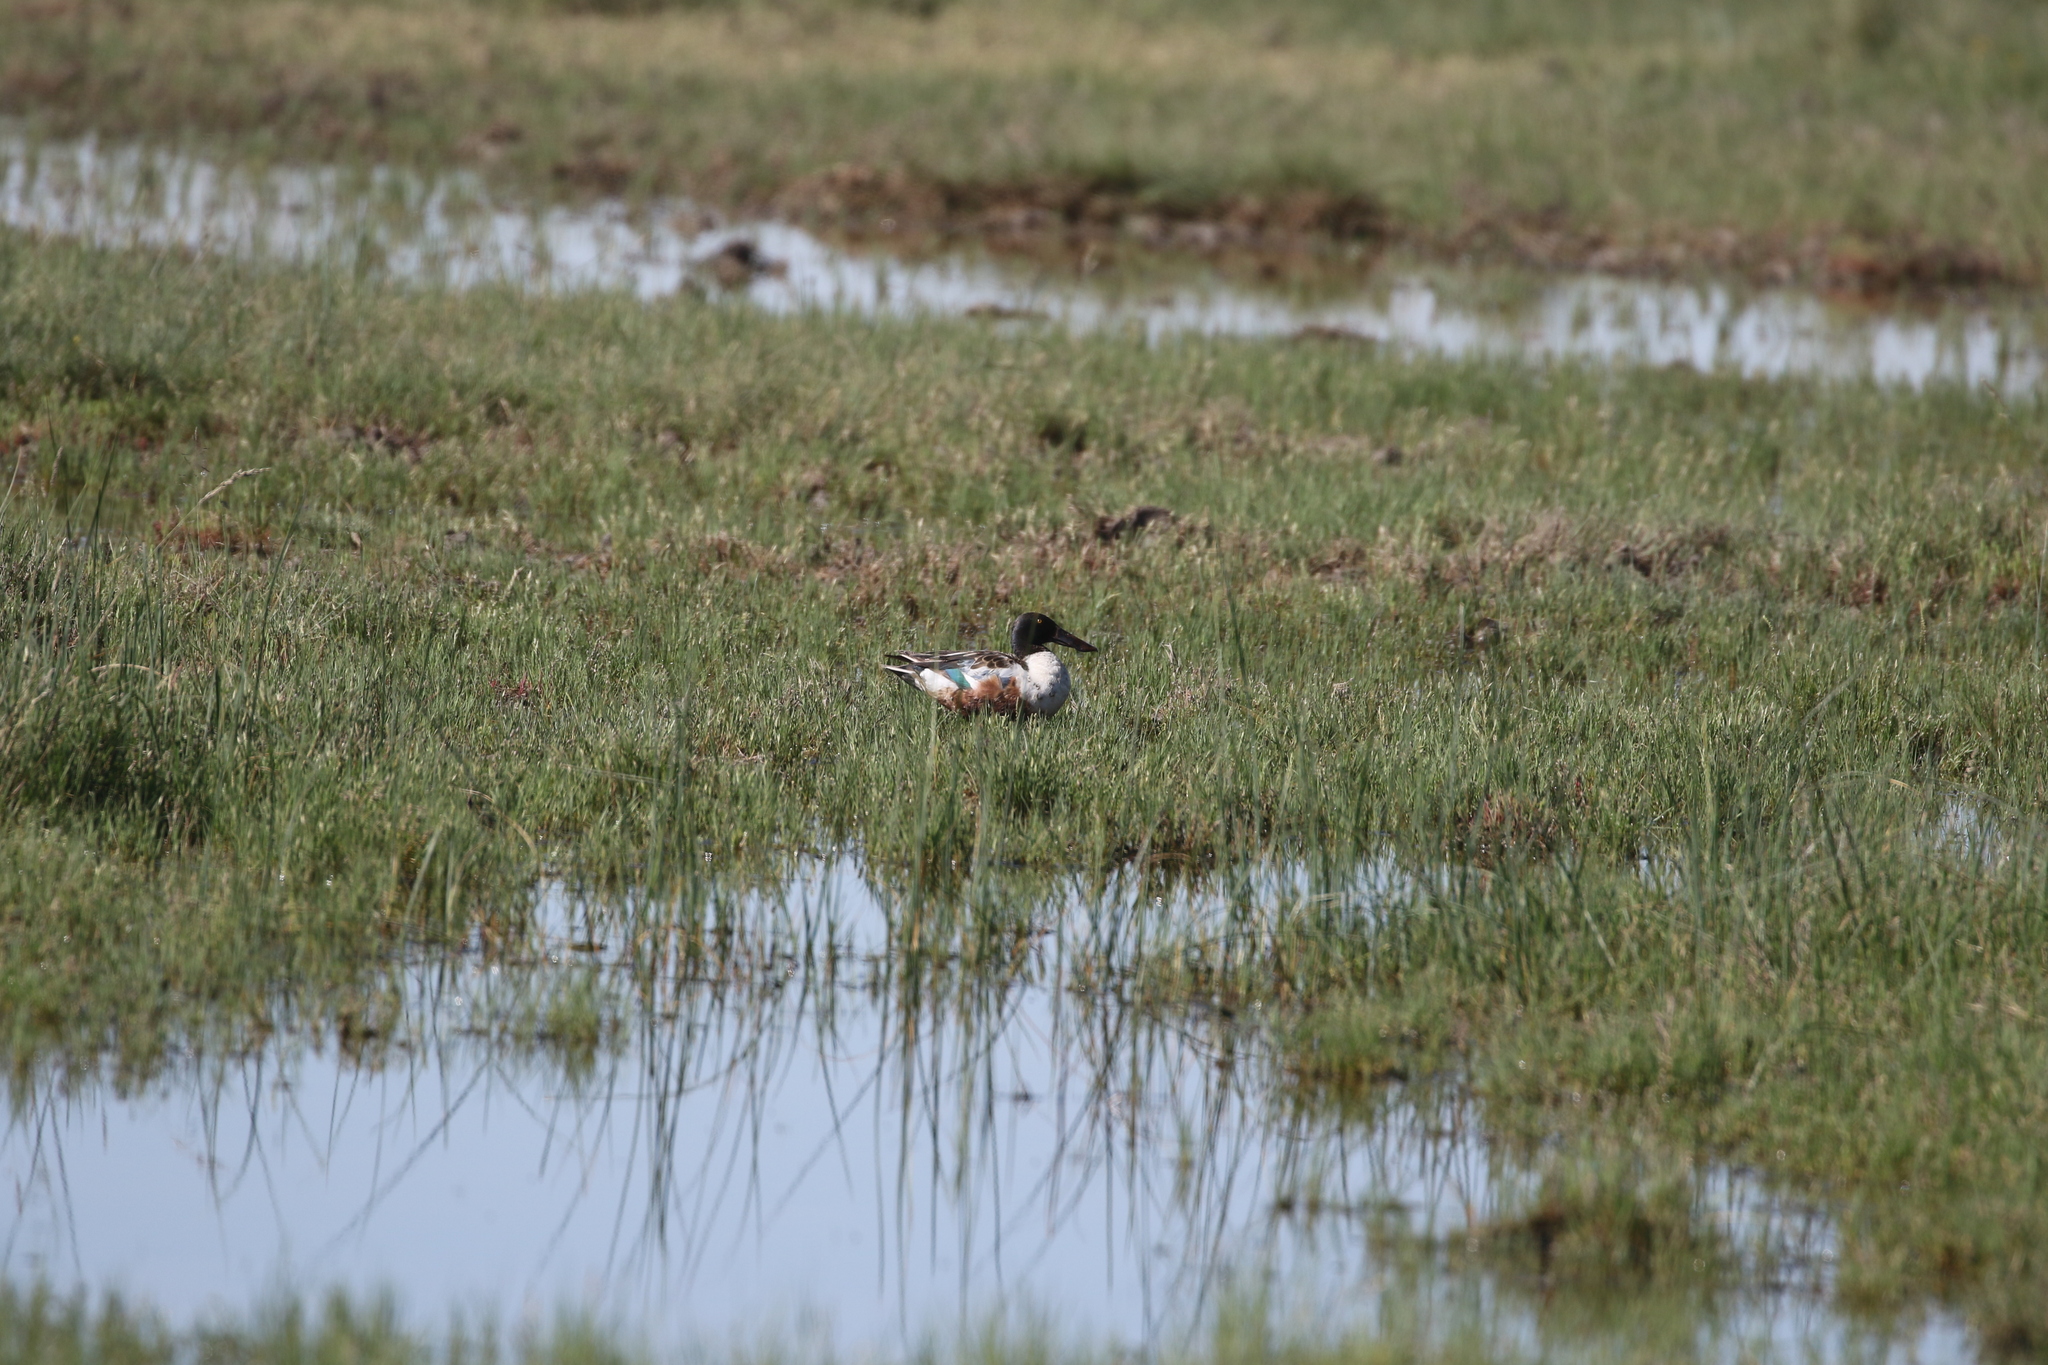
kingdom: Animalia
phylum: Chordata
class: Aves
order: Anseriformes
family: Anatidae
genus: Spatula
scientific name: Spatula clypeata
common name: Northern shoveler
